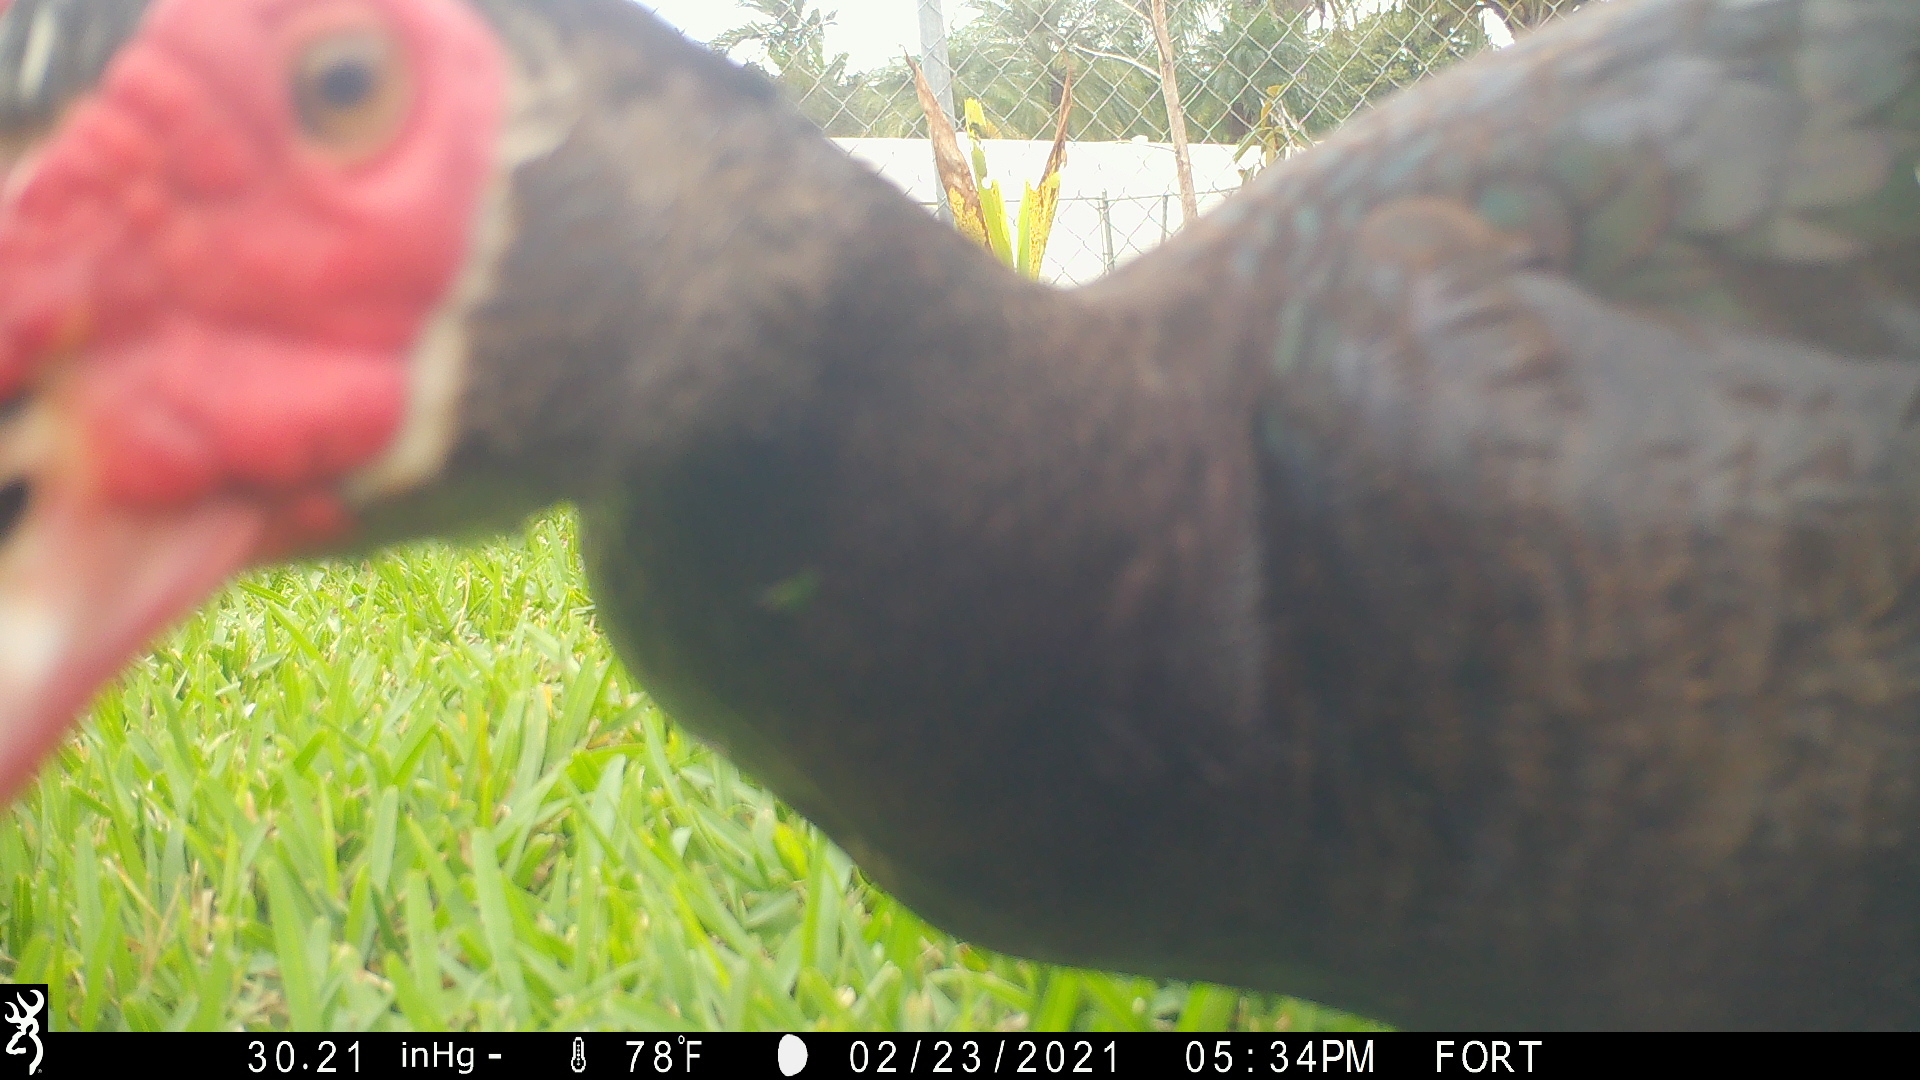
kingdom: Animalia
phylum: Chordata
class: Aves
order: Anseriformes
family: Anatidae
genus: Cairina
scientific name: Cairina moschata
